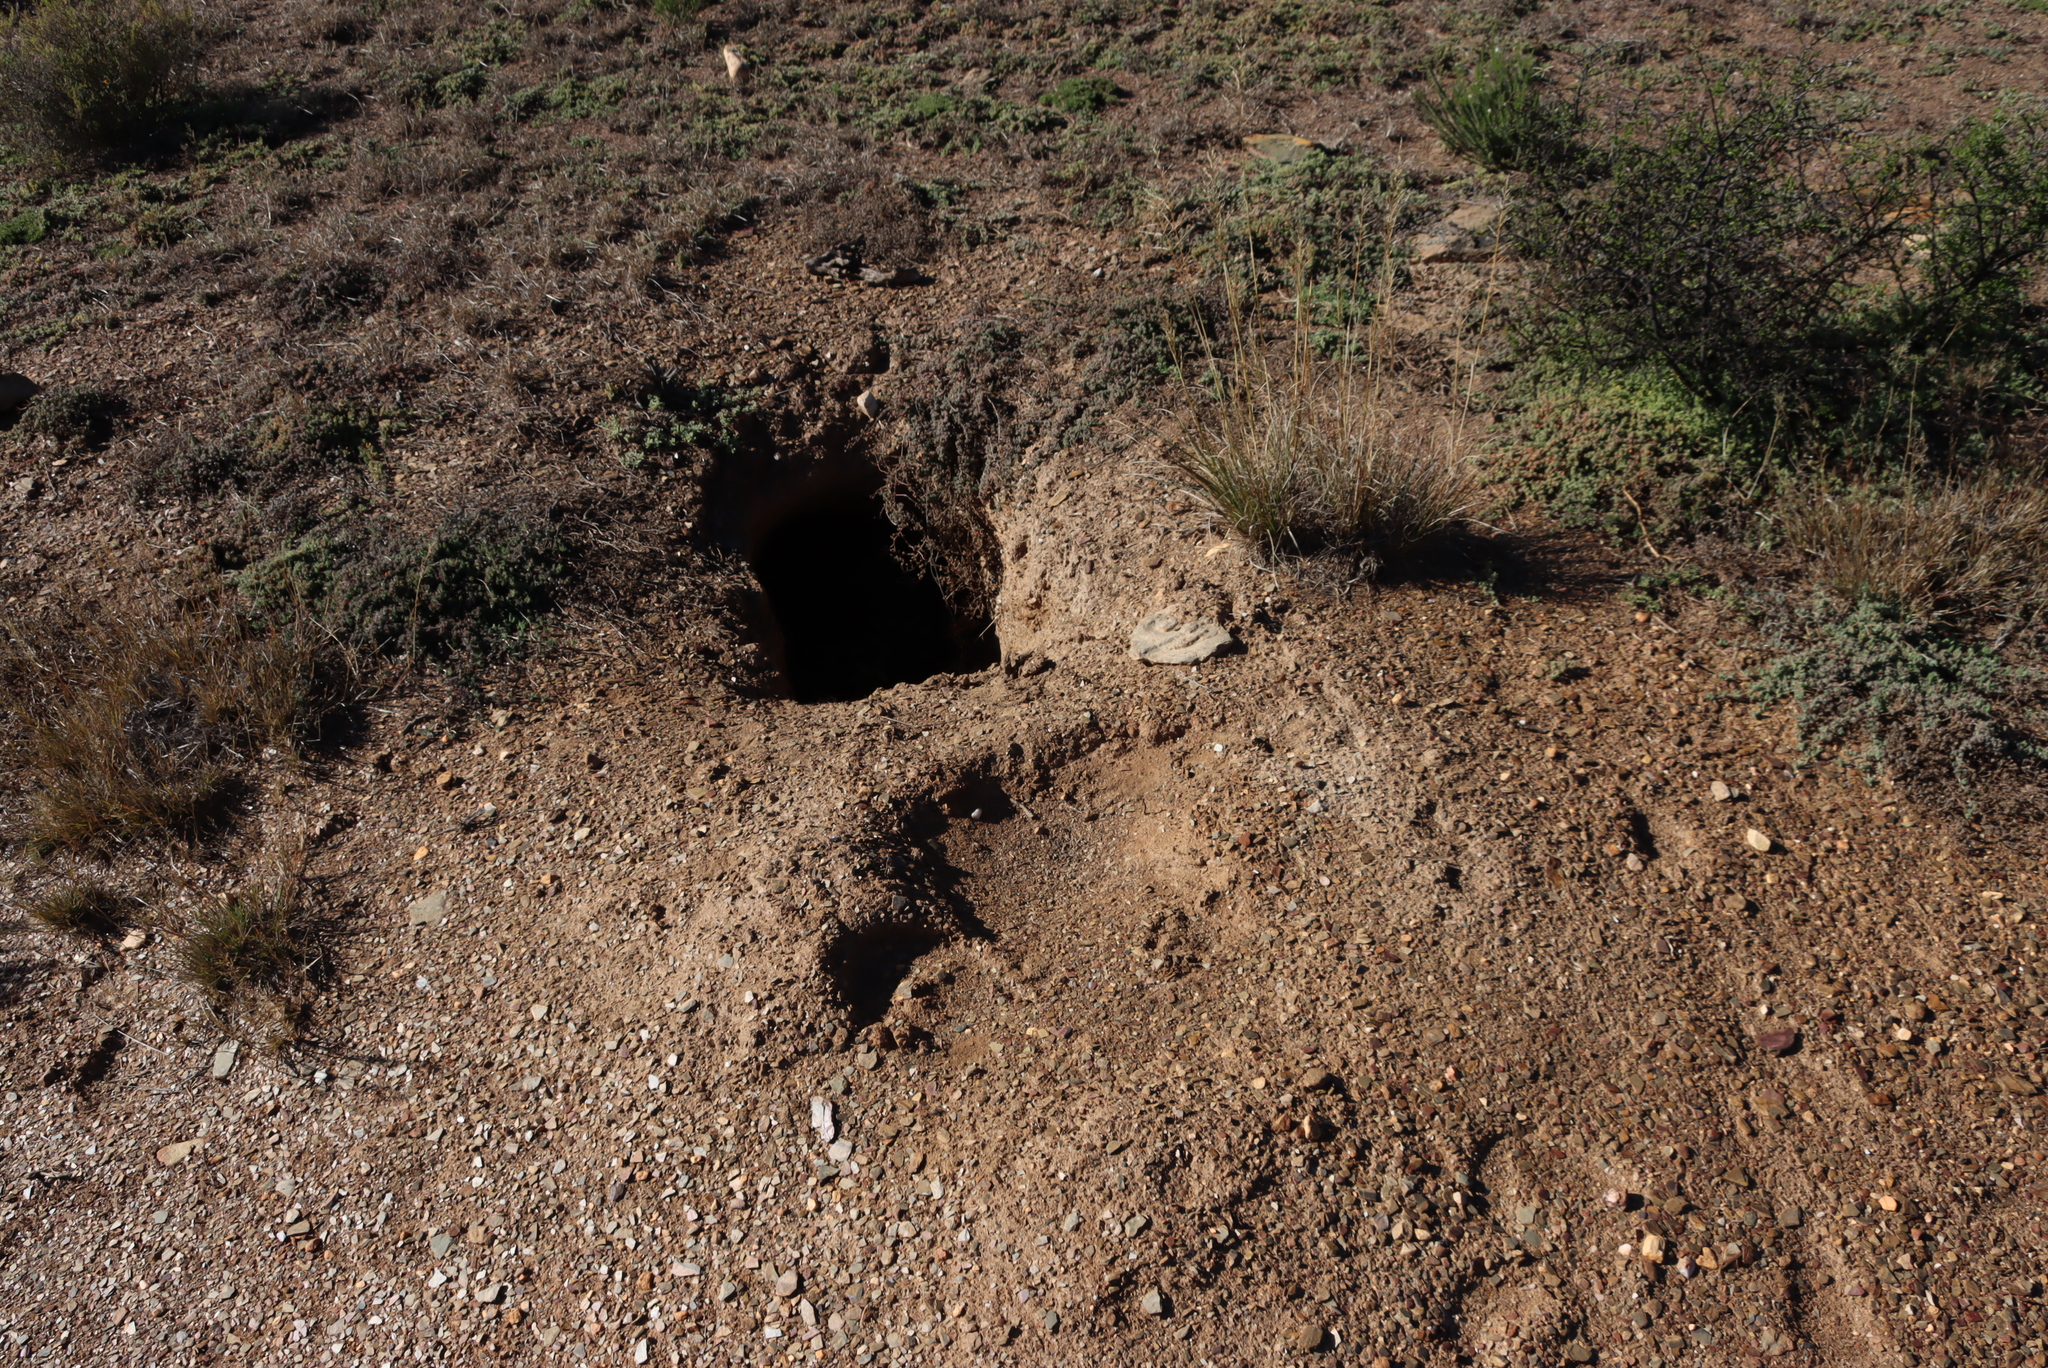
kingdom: Animalia
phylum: Chordata
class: Mammalia
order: Tubulidentata
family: Orycteropodidae
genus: Orycteropus
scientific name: Orycteropus afer
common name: Aardvark
